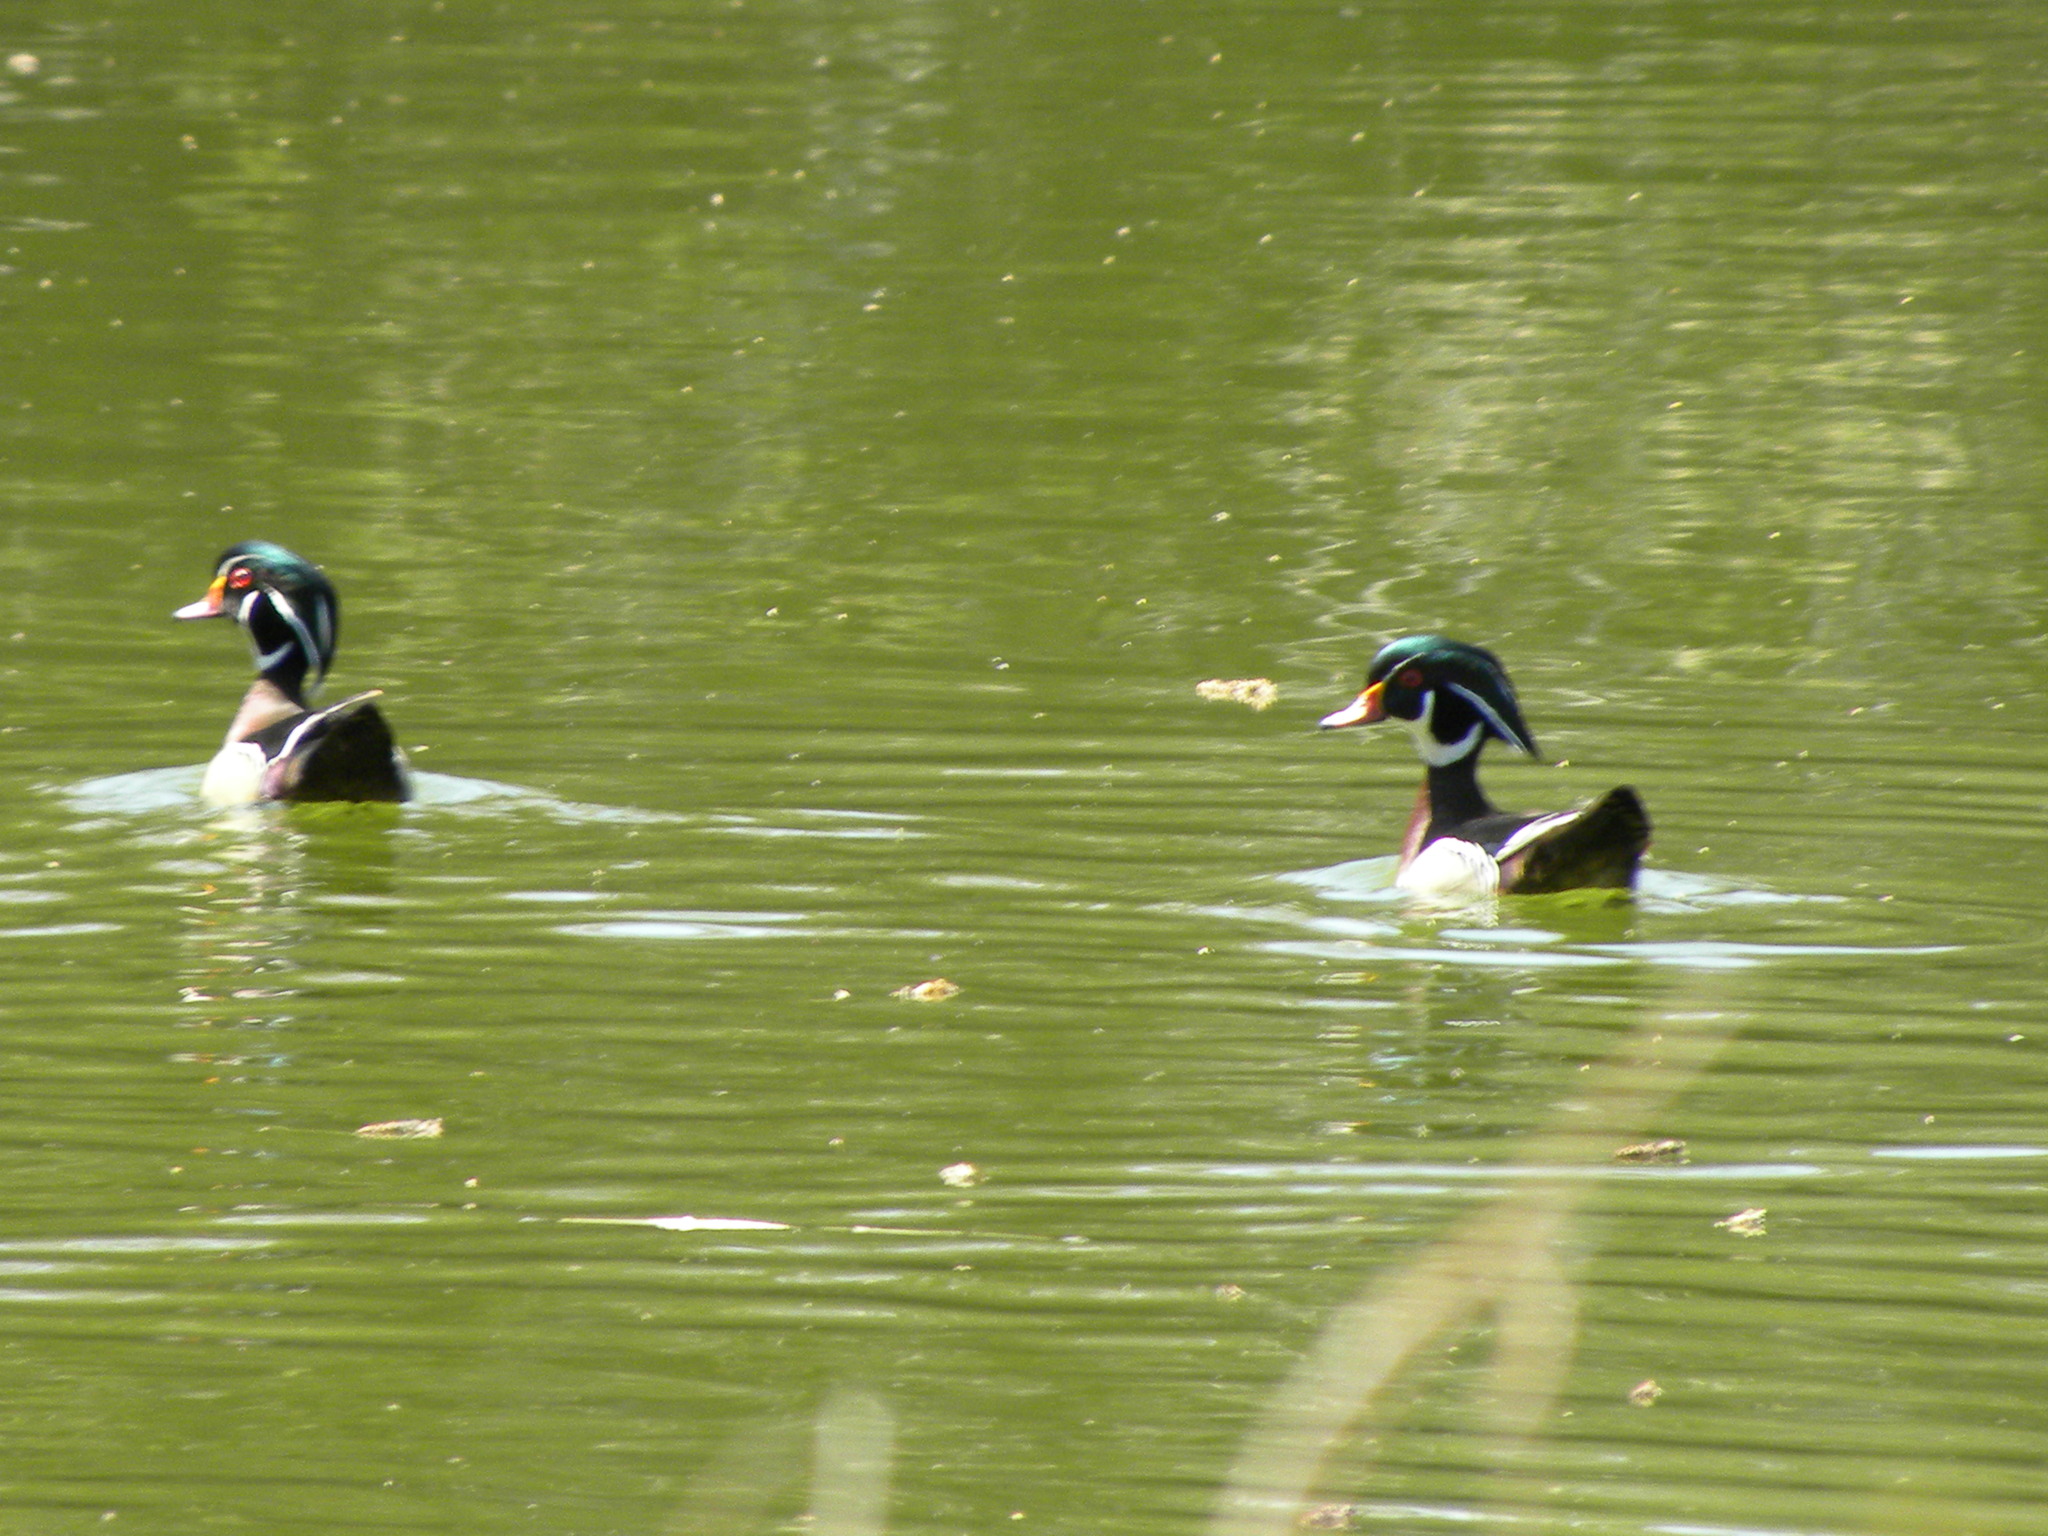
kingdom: Animalia
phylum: Chordata
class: Aves
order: Anseriformes
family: Anatidae
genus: Aix
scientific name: Aix sponsa
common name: Wood duck
